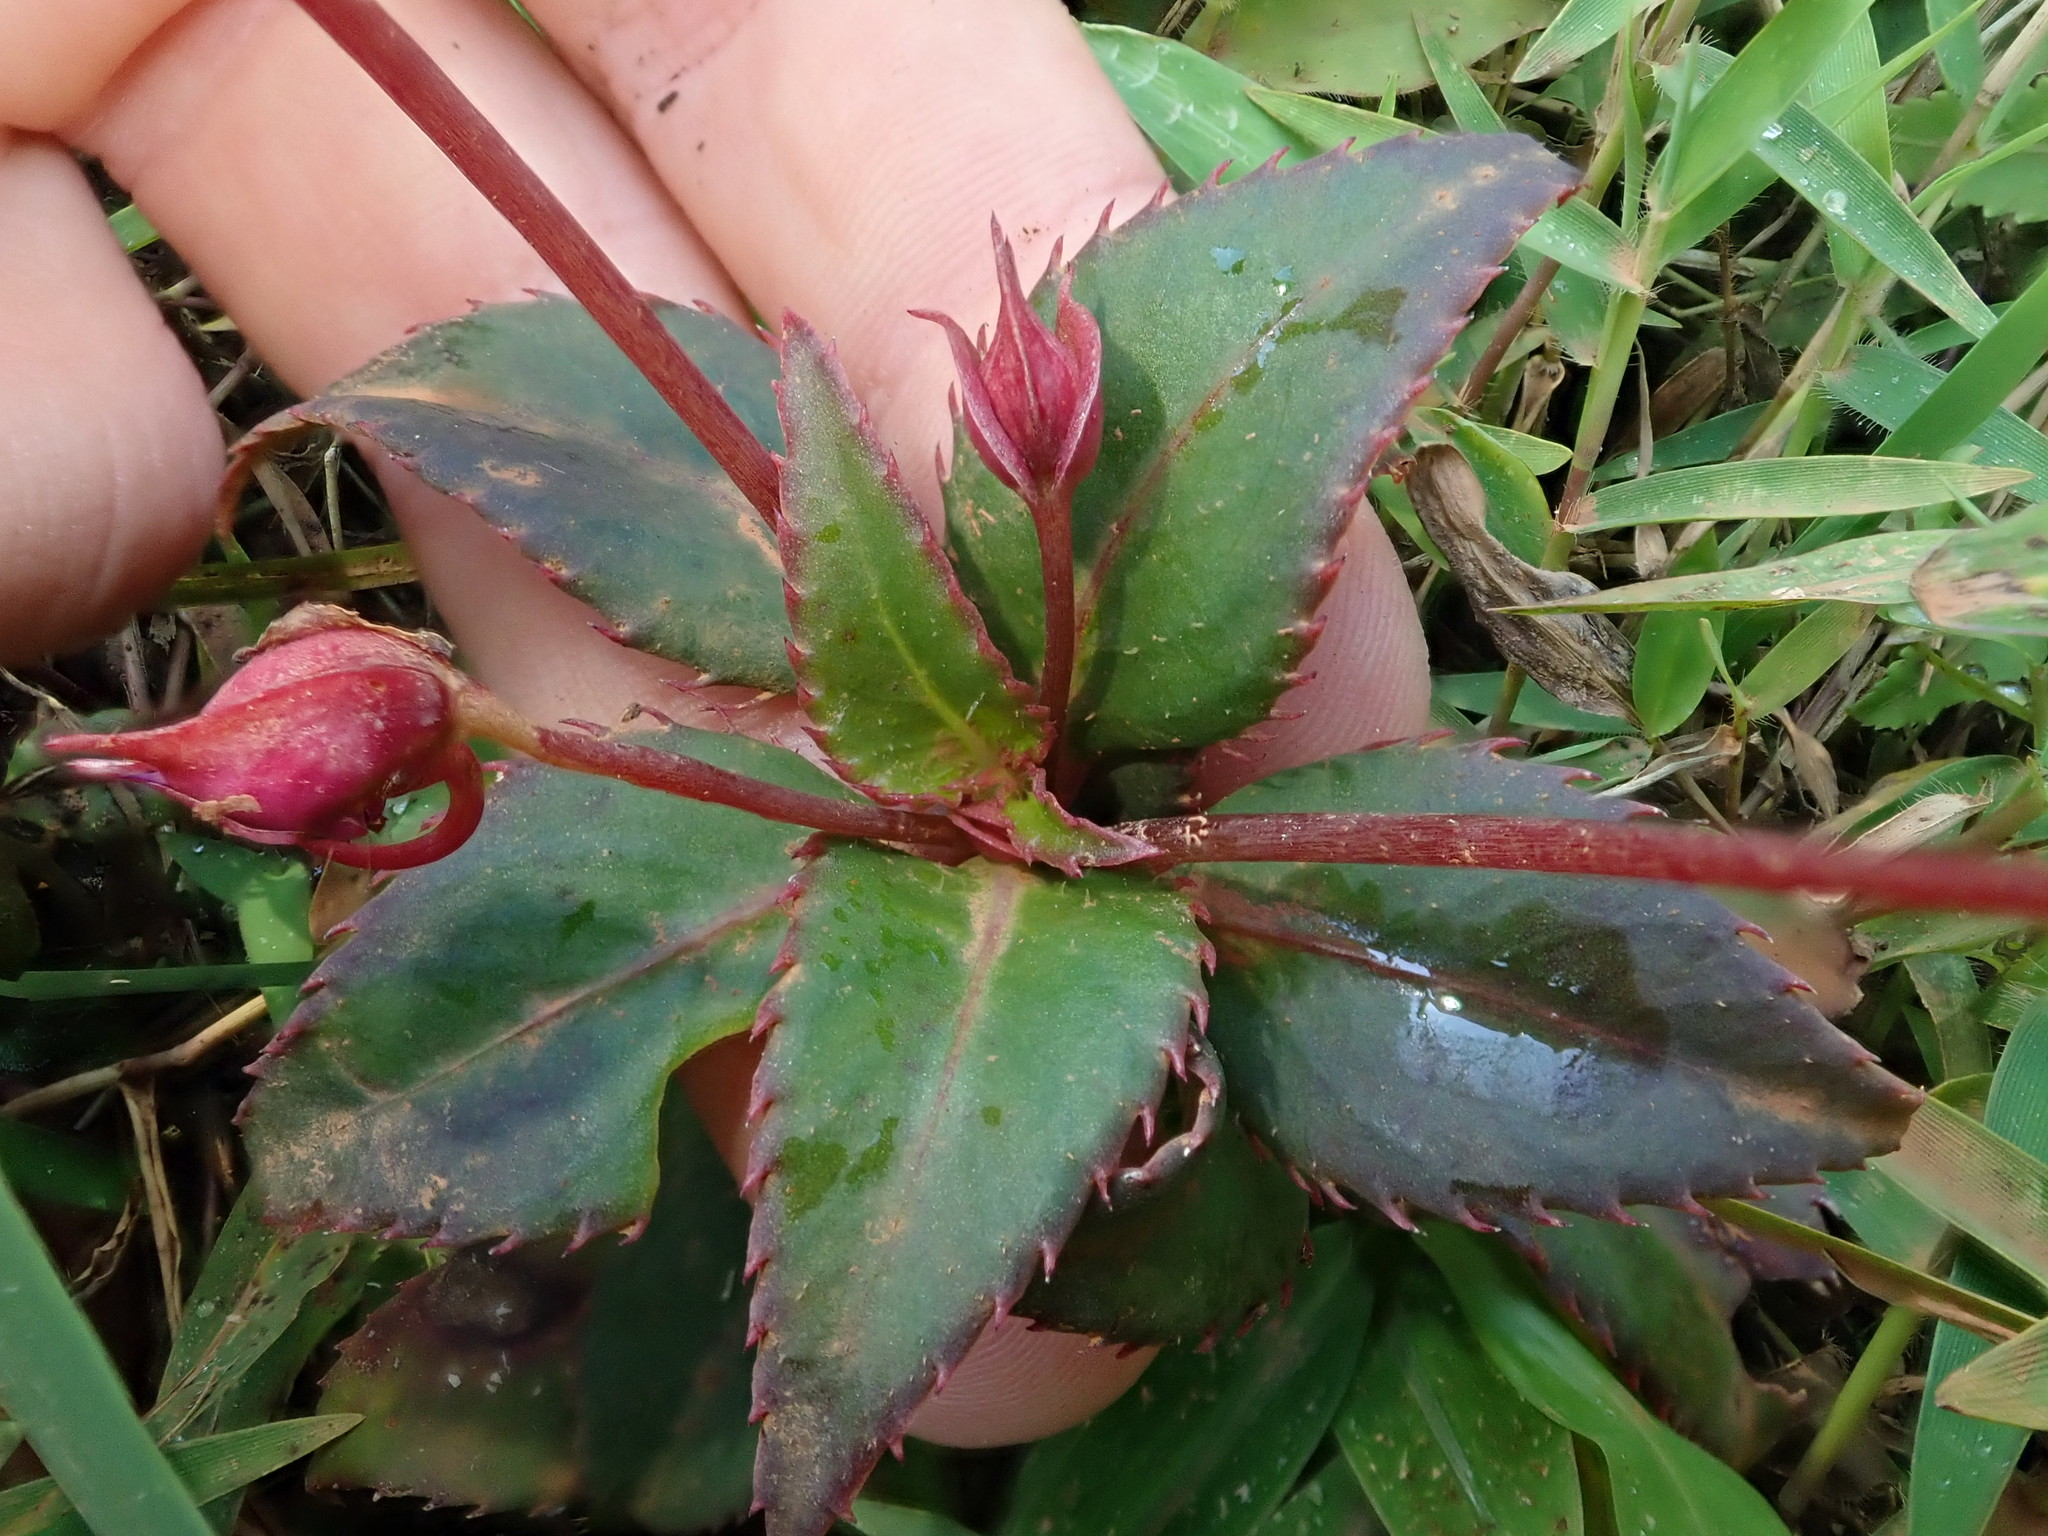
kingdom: Plantae
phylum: Tracheophyta
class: Magnoliopsida
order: Ericales
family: Balsaminaceae
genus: Impatiens
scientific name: Impatiens attopeuensis
